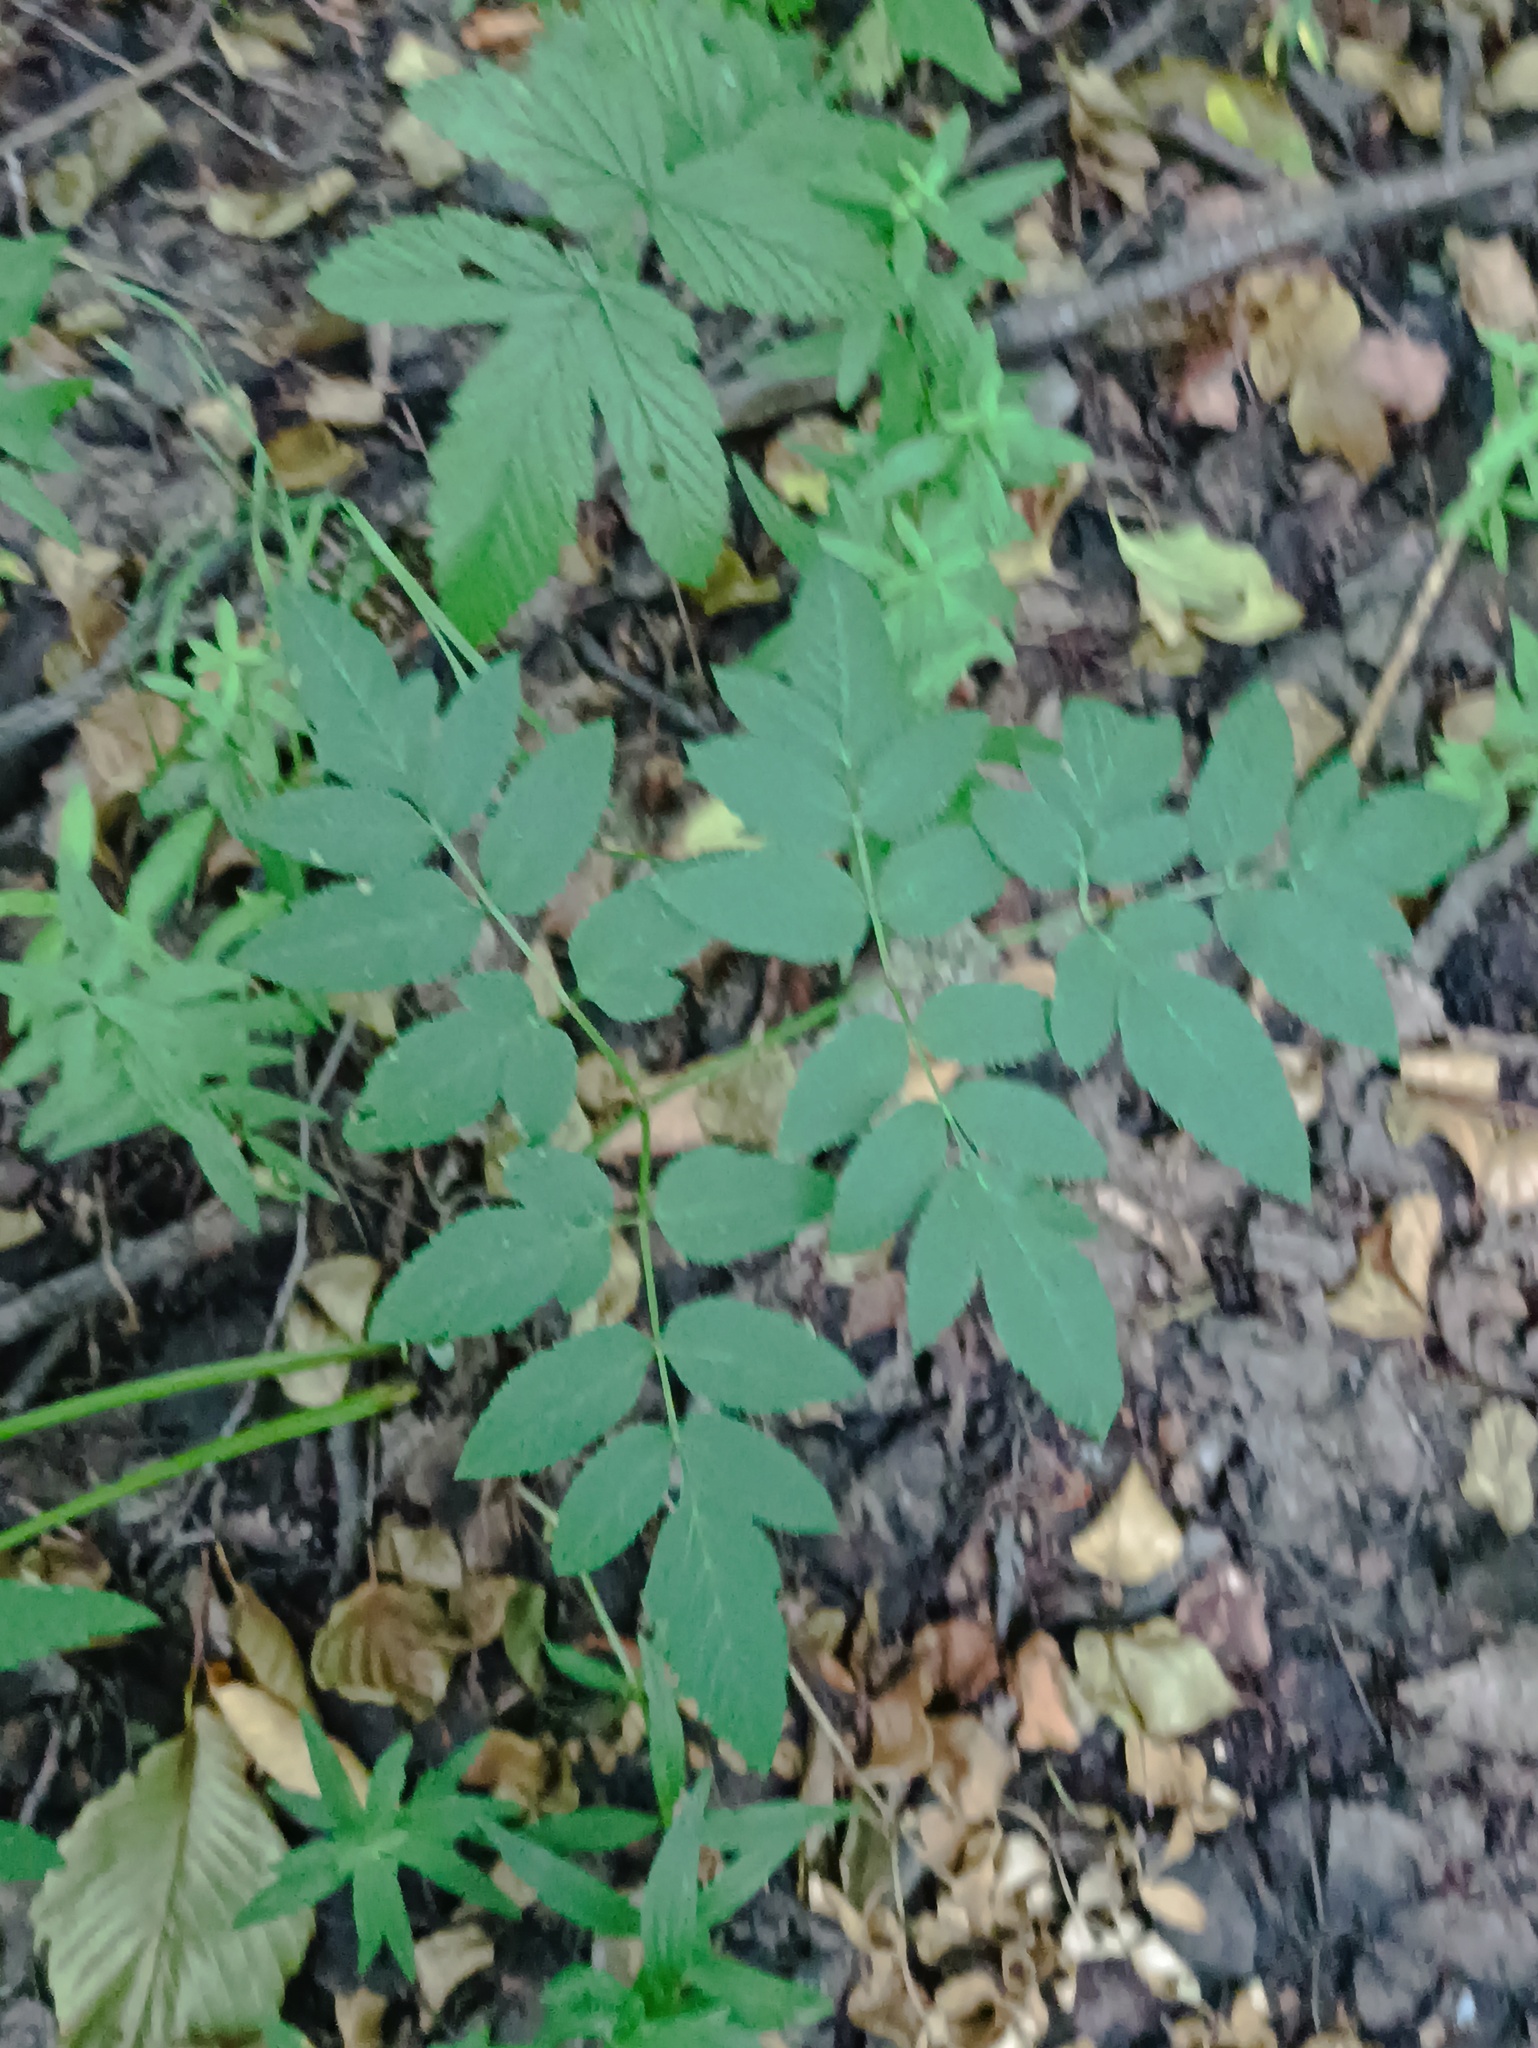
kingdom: Plantae
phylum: Tracheophyta
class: Magnoliopsida
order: Apiales
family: Apiaceae
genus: Angelica
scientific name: Angelica sylvestris
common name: Wild angelica
